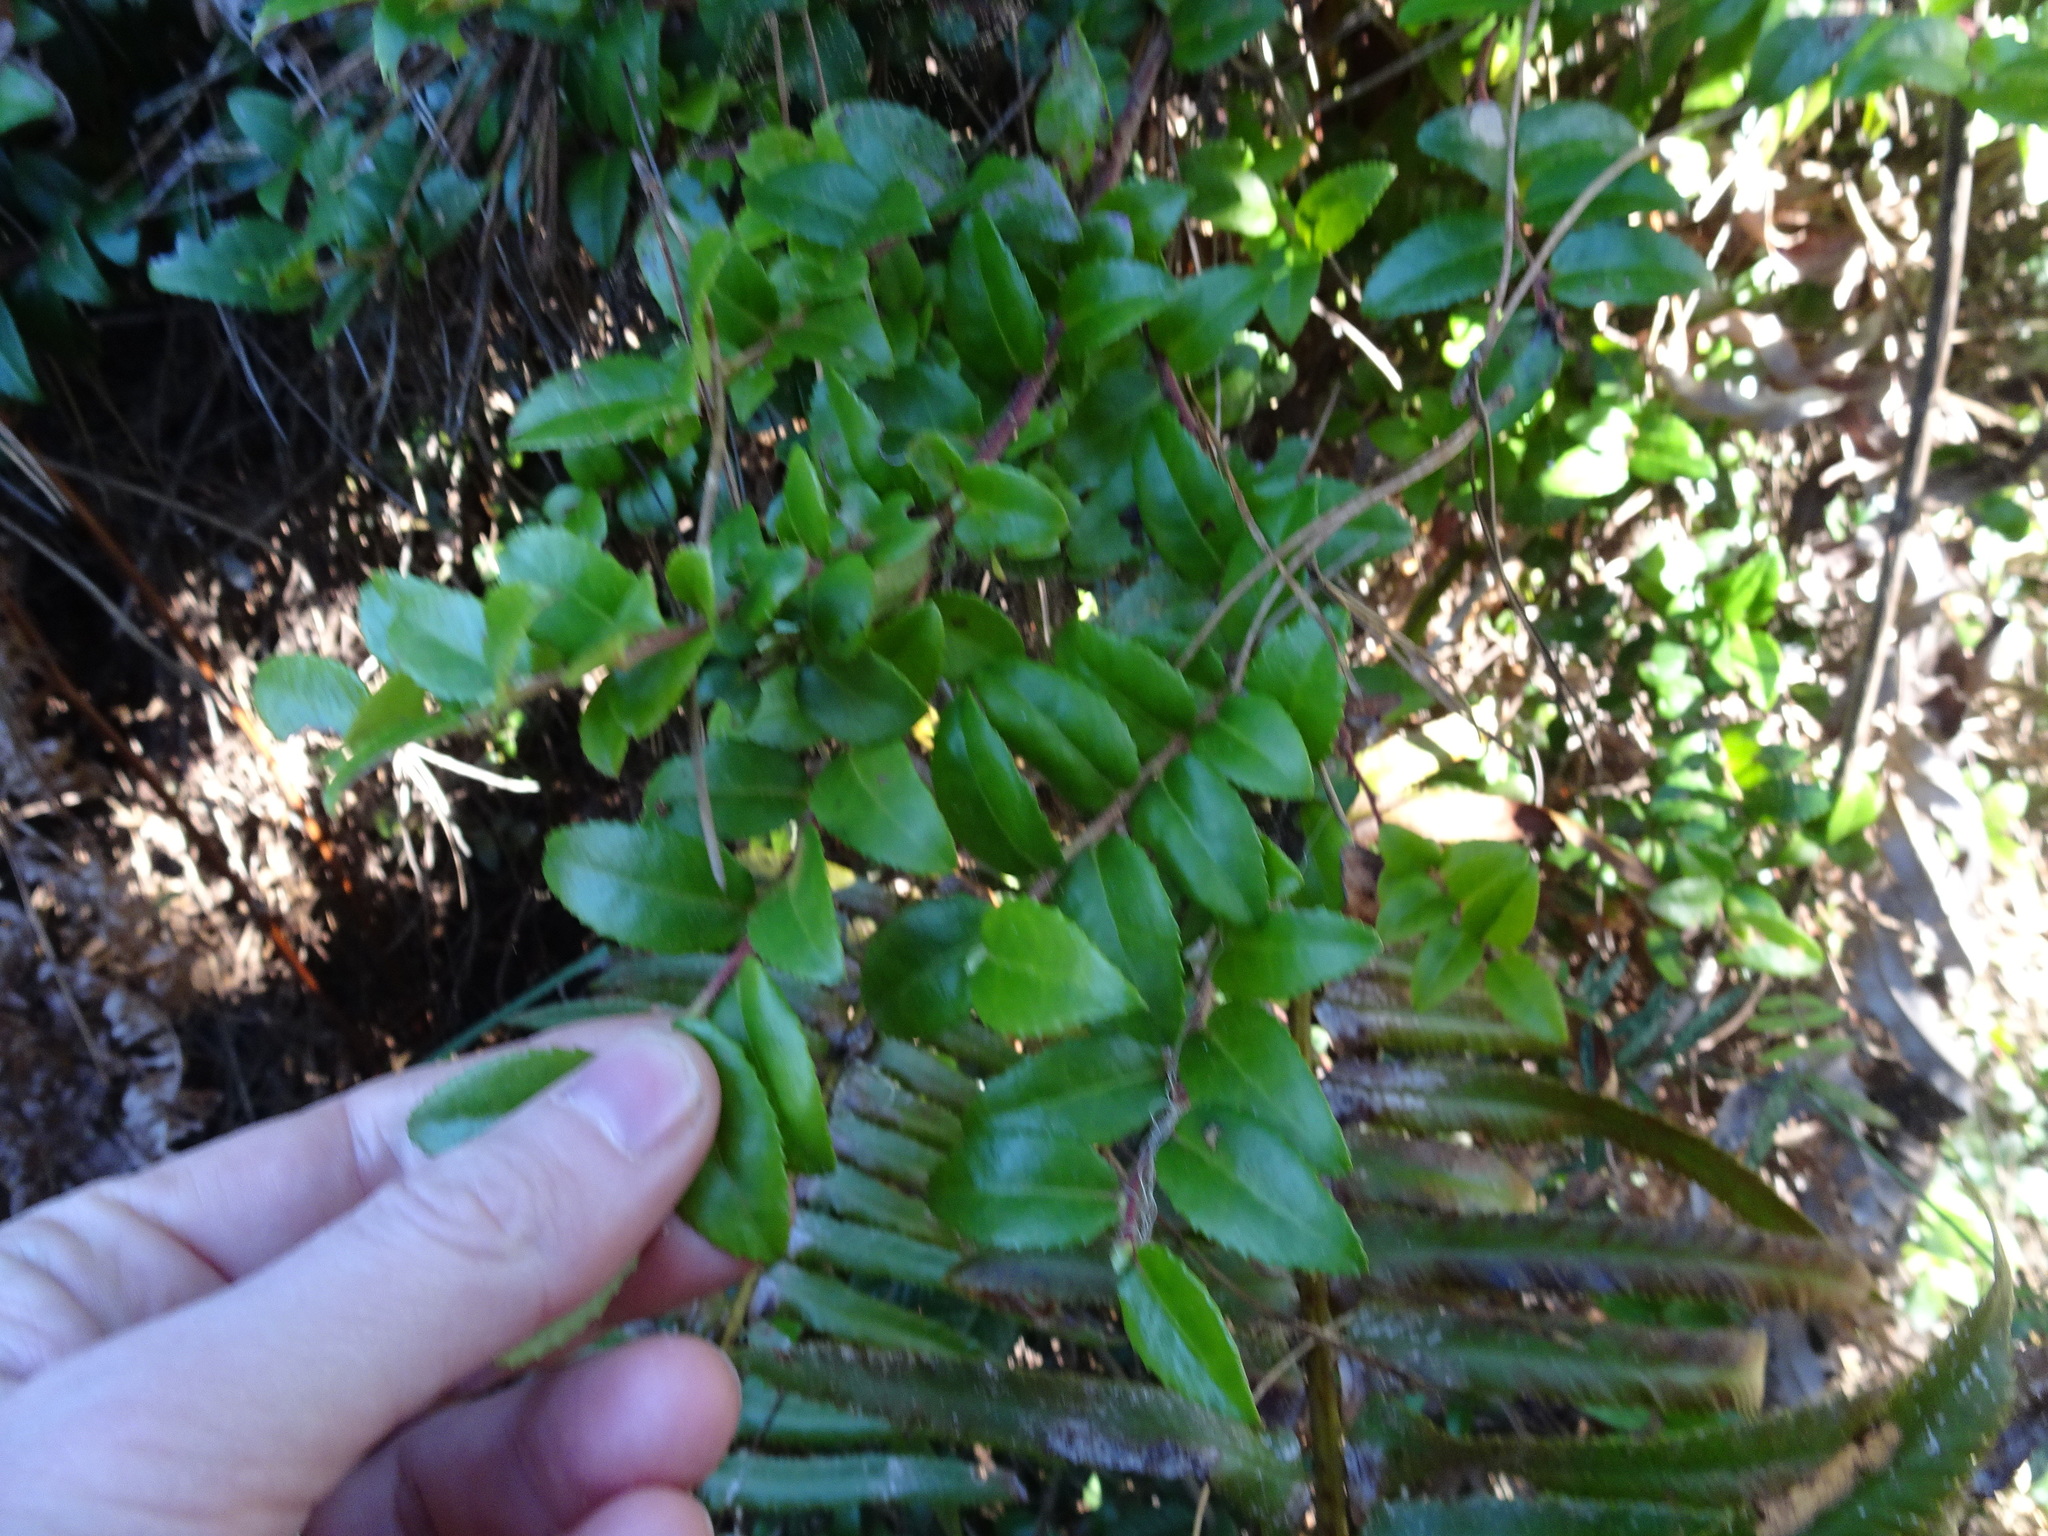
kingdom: Plantae
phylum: Tracheophyta
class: Magnoliopsida
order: Ericales
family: Ericaceae
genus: Vaccinium
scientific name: Vaccinium ovatum
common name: California-huckleberry
